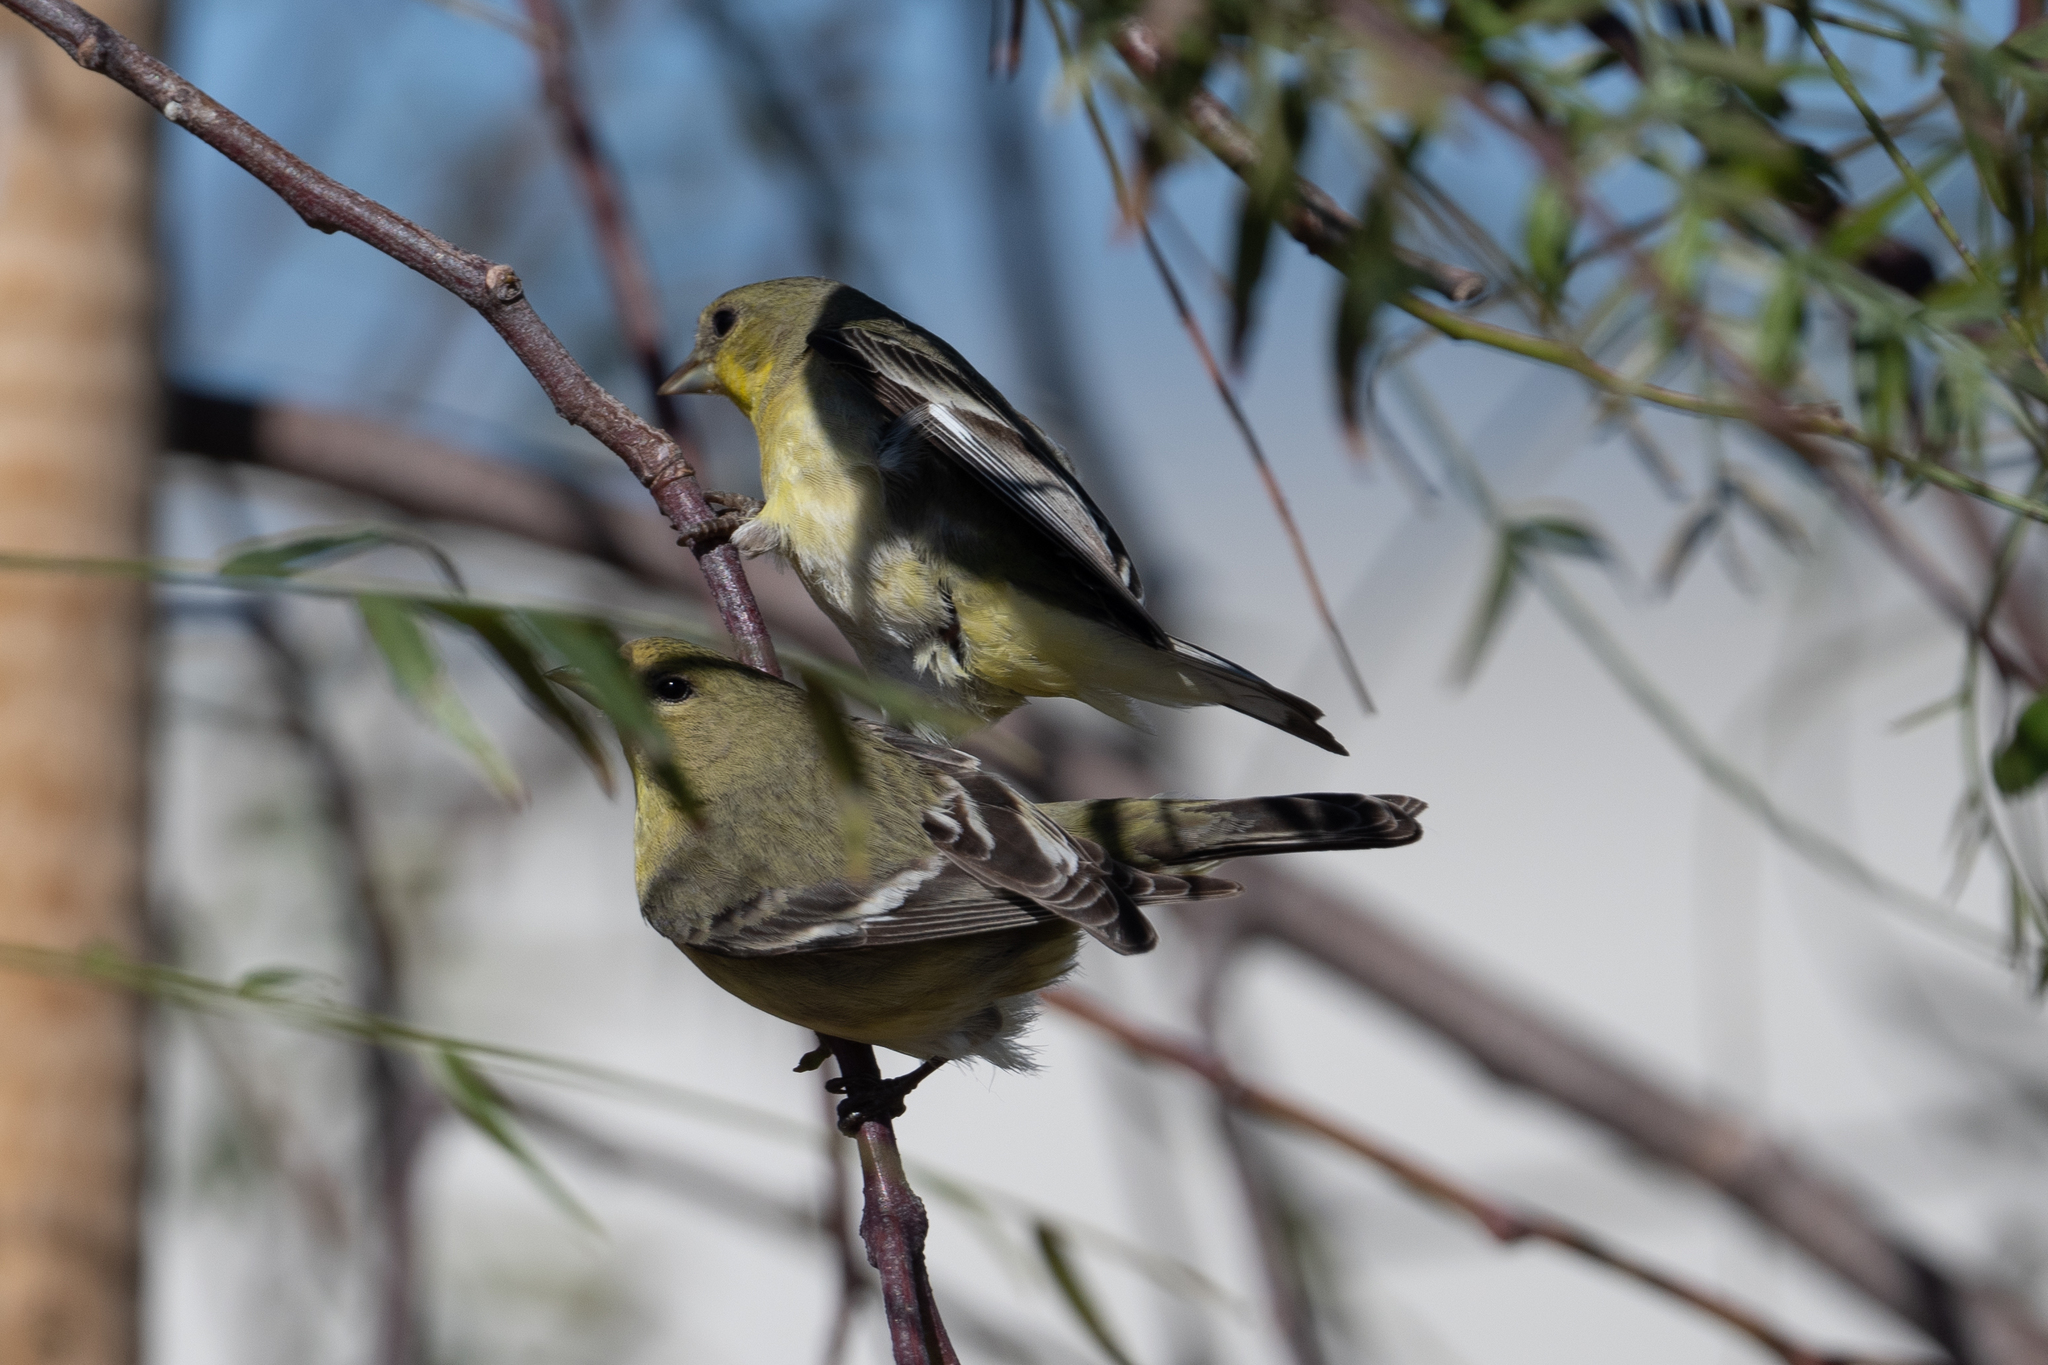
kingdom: Animalia
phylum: Chordata
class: Aves
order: Passeriformes
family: Fringillidae
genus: Spinus
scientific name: Spinus psaltria
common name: Lesser goldfinch
